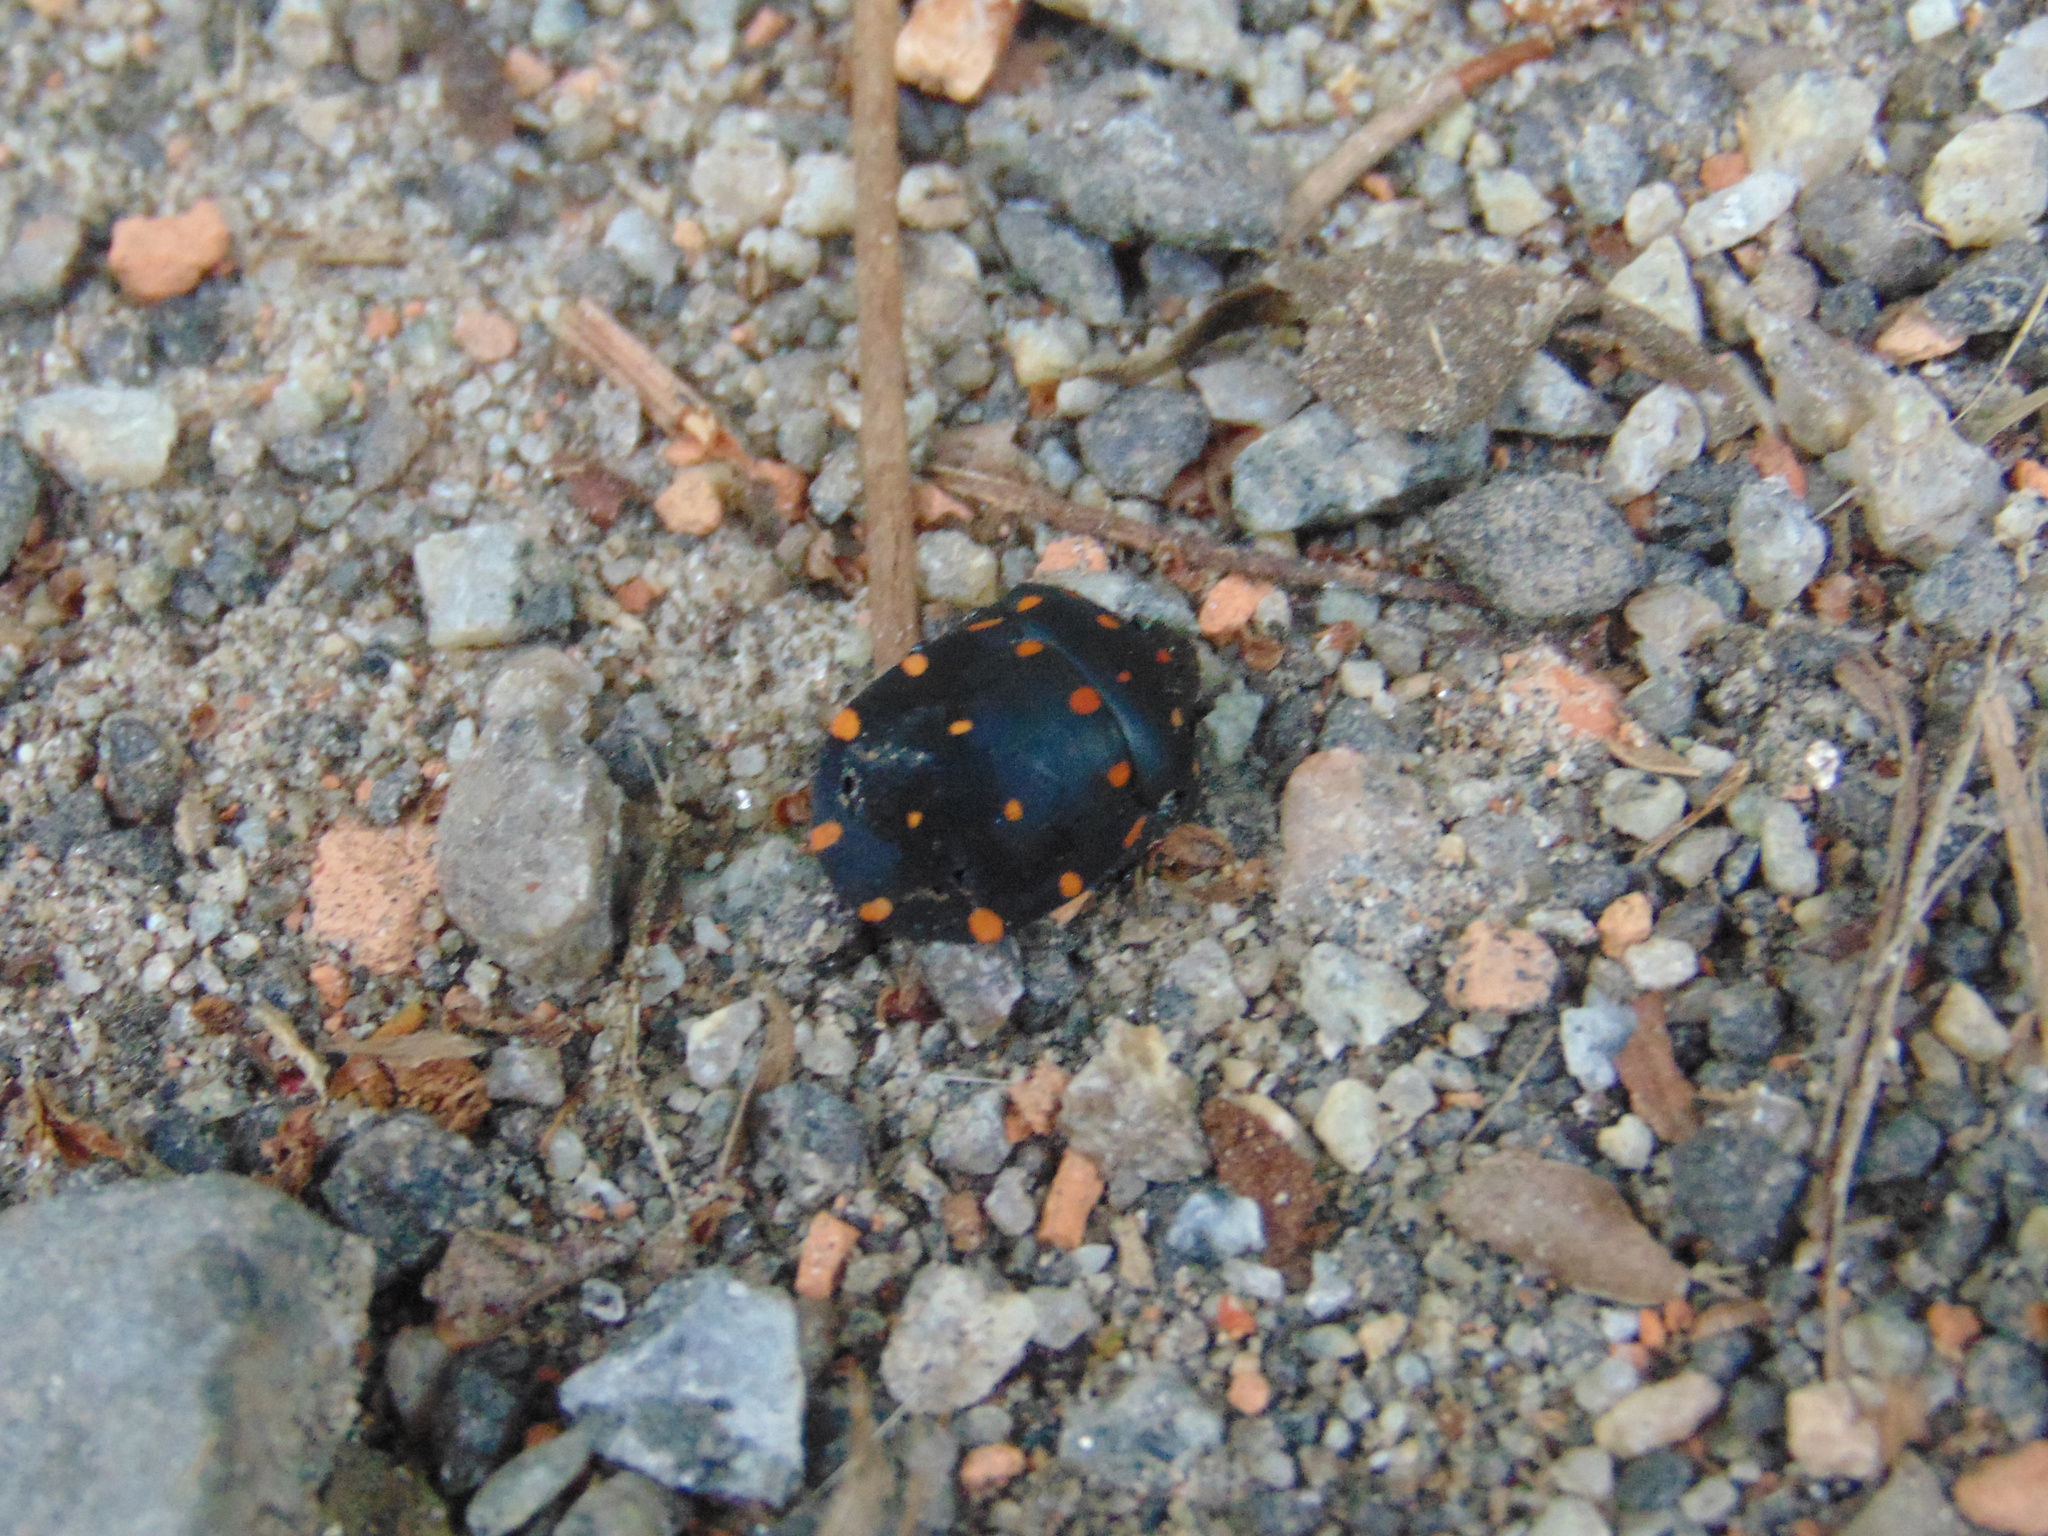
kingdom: Animalia
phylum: Arthropoda
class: Insecta
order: Hemiptera
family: Scutelleridae
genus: Pachycoris
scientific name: Pachycoris torridus
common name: Torrid jewel bug
